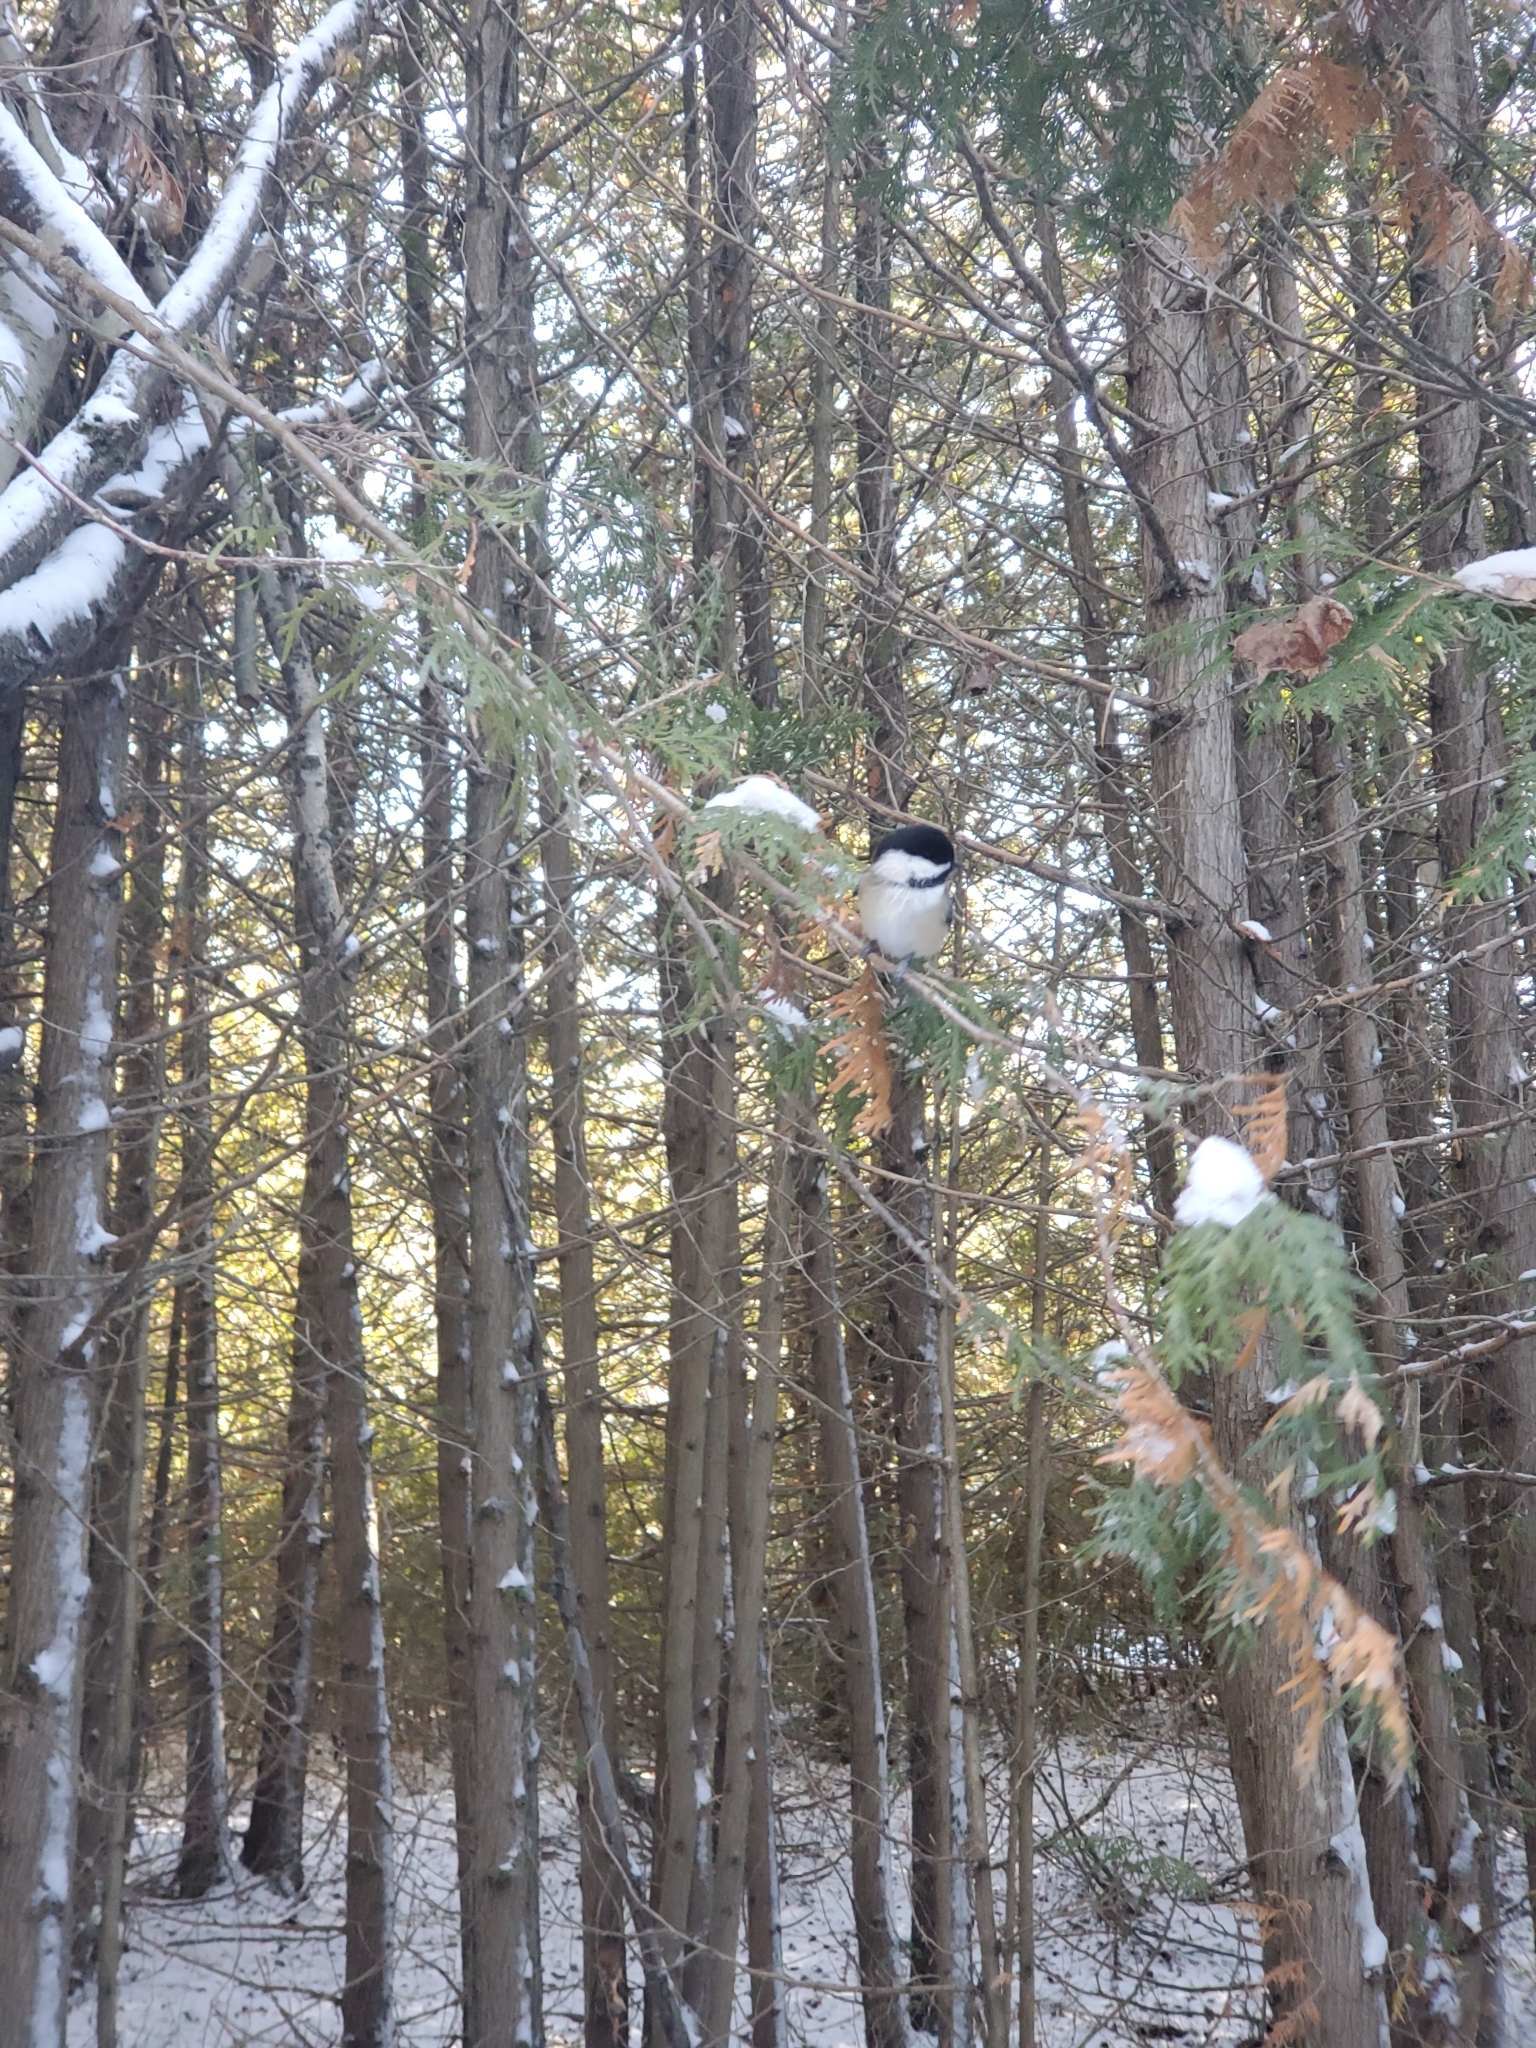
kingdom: Animalia
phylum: Chordata
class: Aves
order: Passeriformes
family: Paridae
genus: Poecile
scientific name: Poecile atricapillus
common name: Black-capped chickadee
